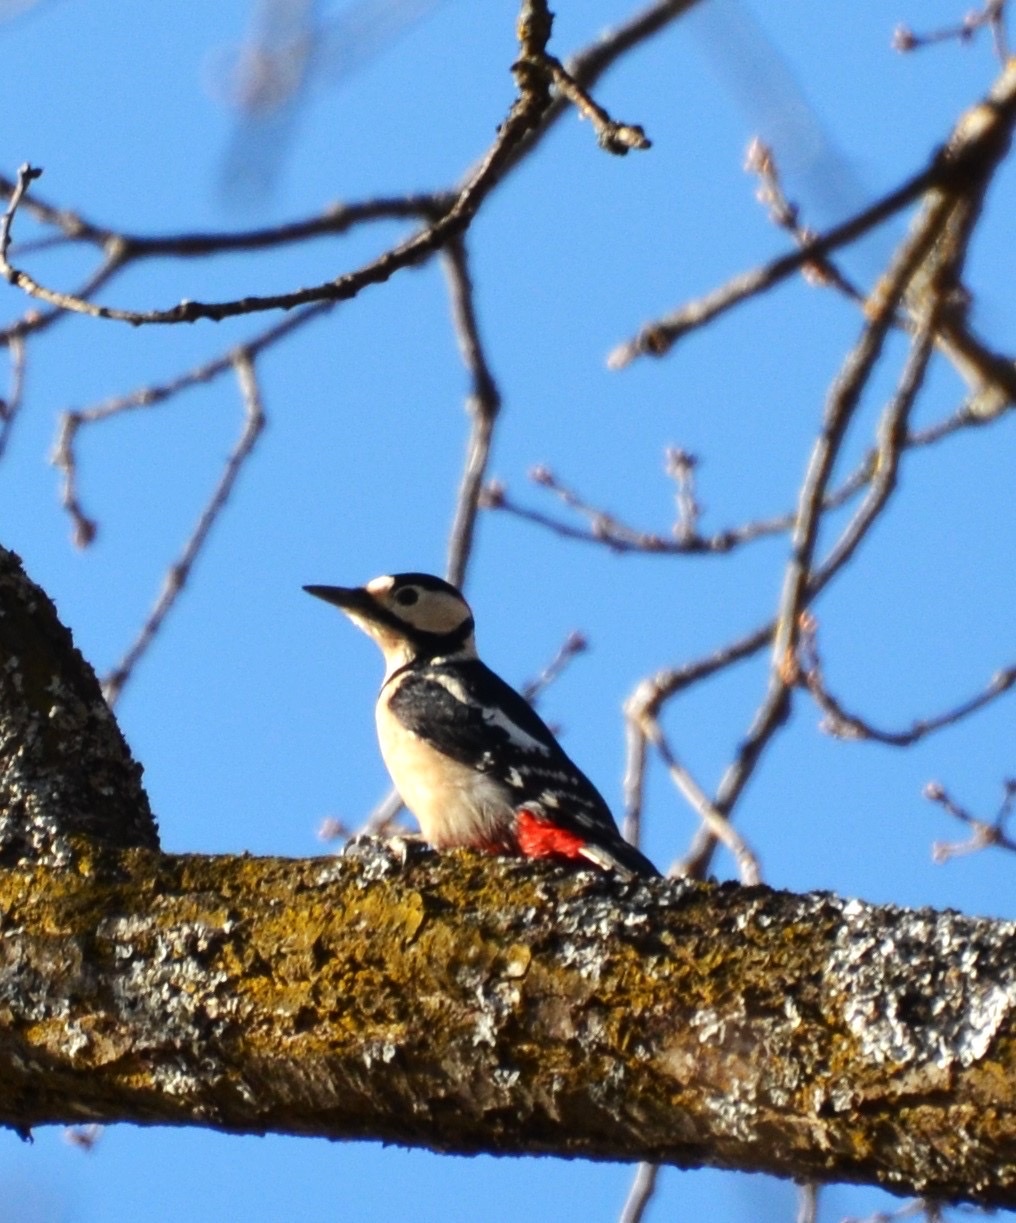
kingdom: Animalia
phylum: Chordata
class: Aves
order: Piciformes
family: Picidae
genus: Dendrocopos
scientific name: Dendrocopos major
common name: Great spotted woodpecker
